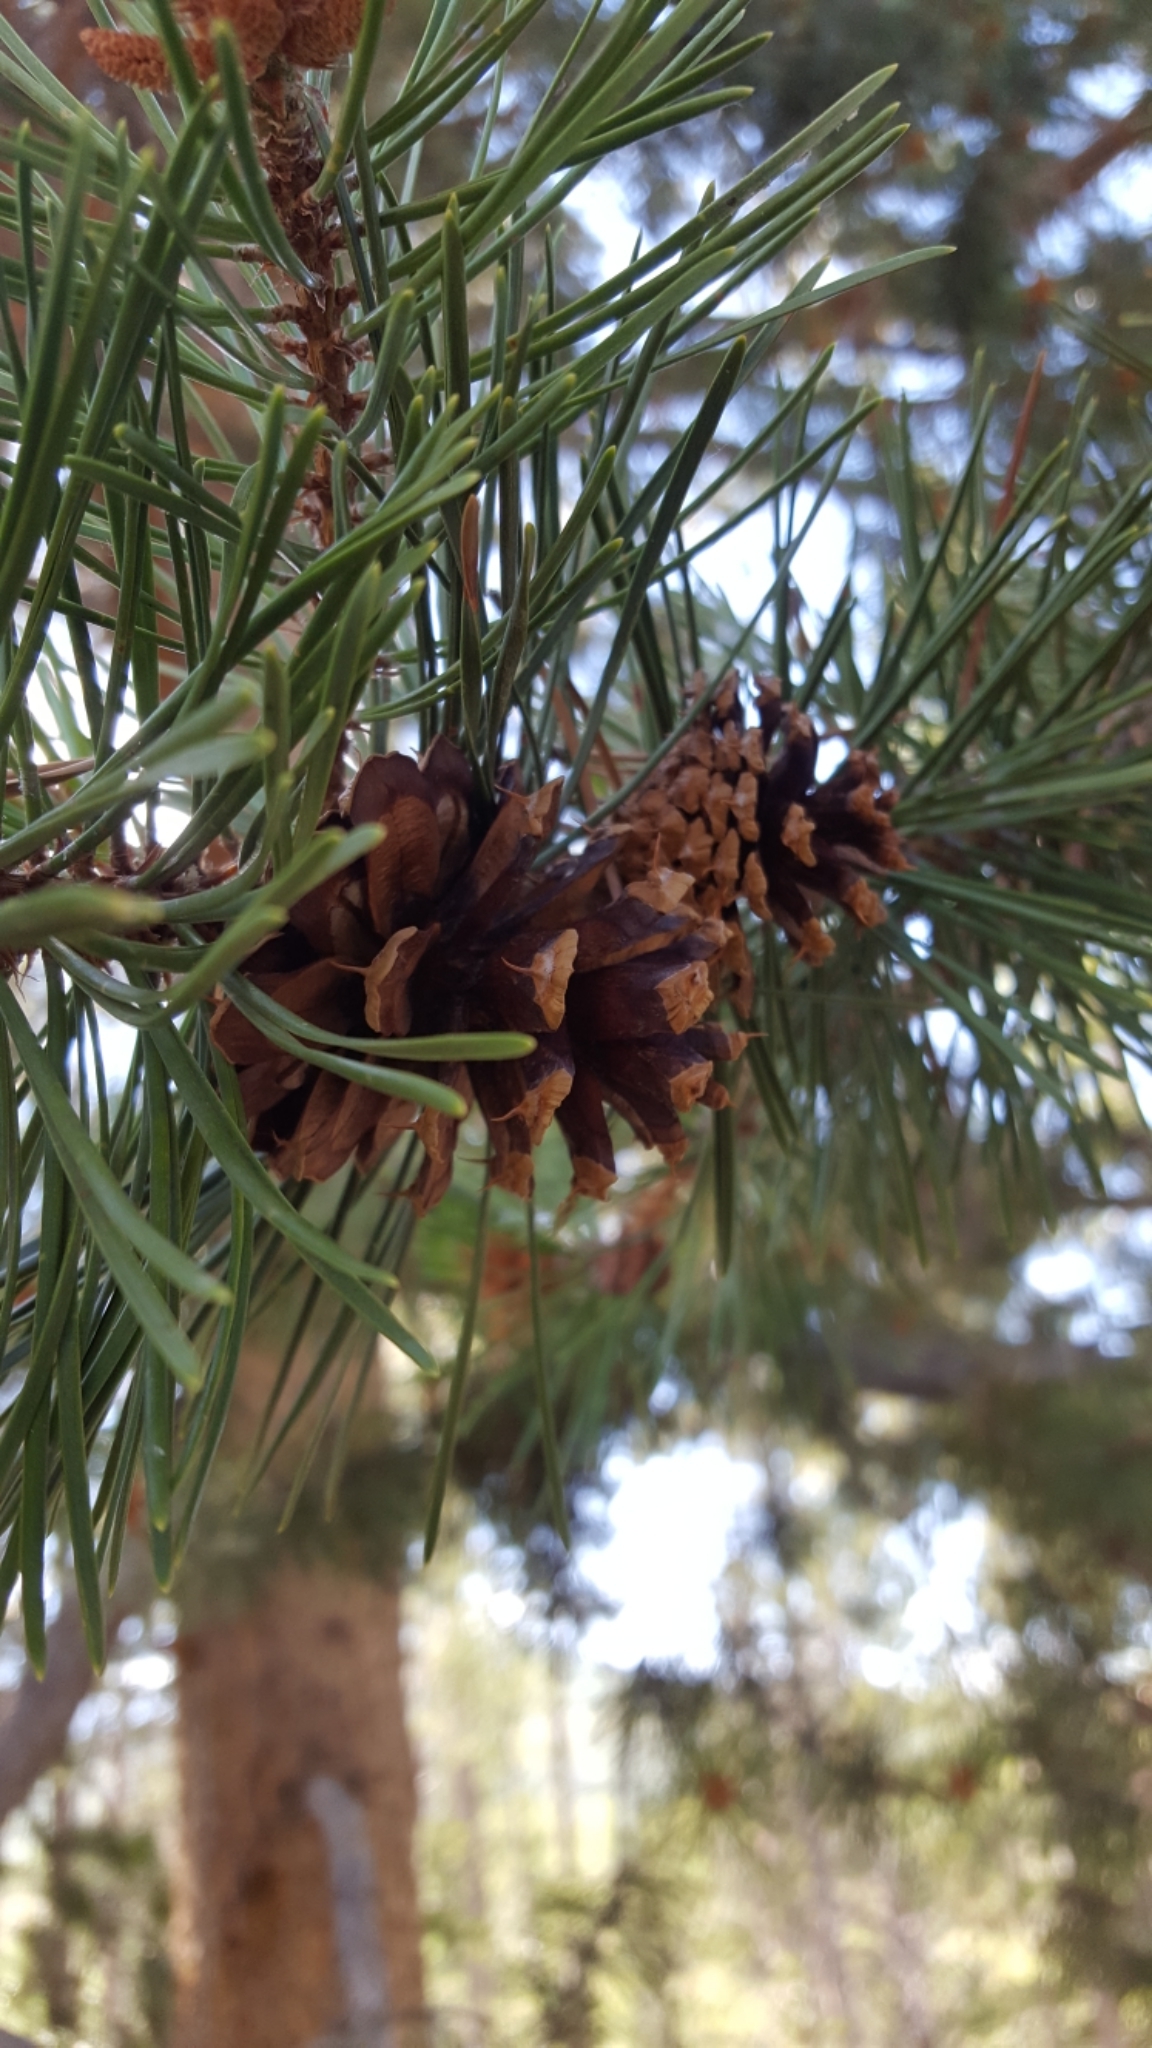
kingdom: Plantae
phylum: Tracheophyta
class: Pinopsida
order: Pinales
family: Pinaceae
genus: Pinus
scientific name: Pinus contorta
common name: Lodgepole pine
